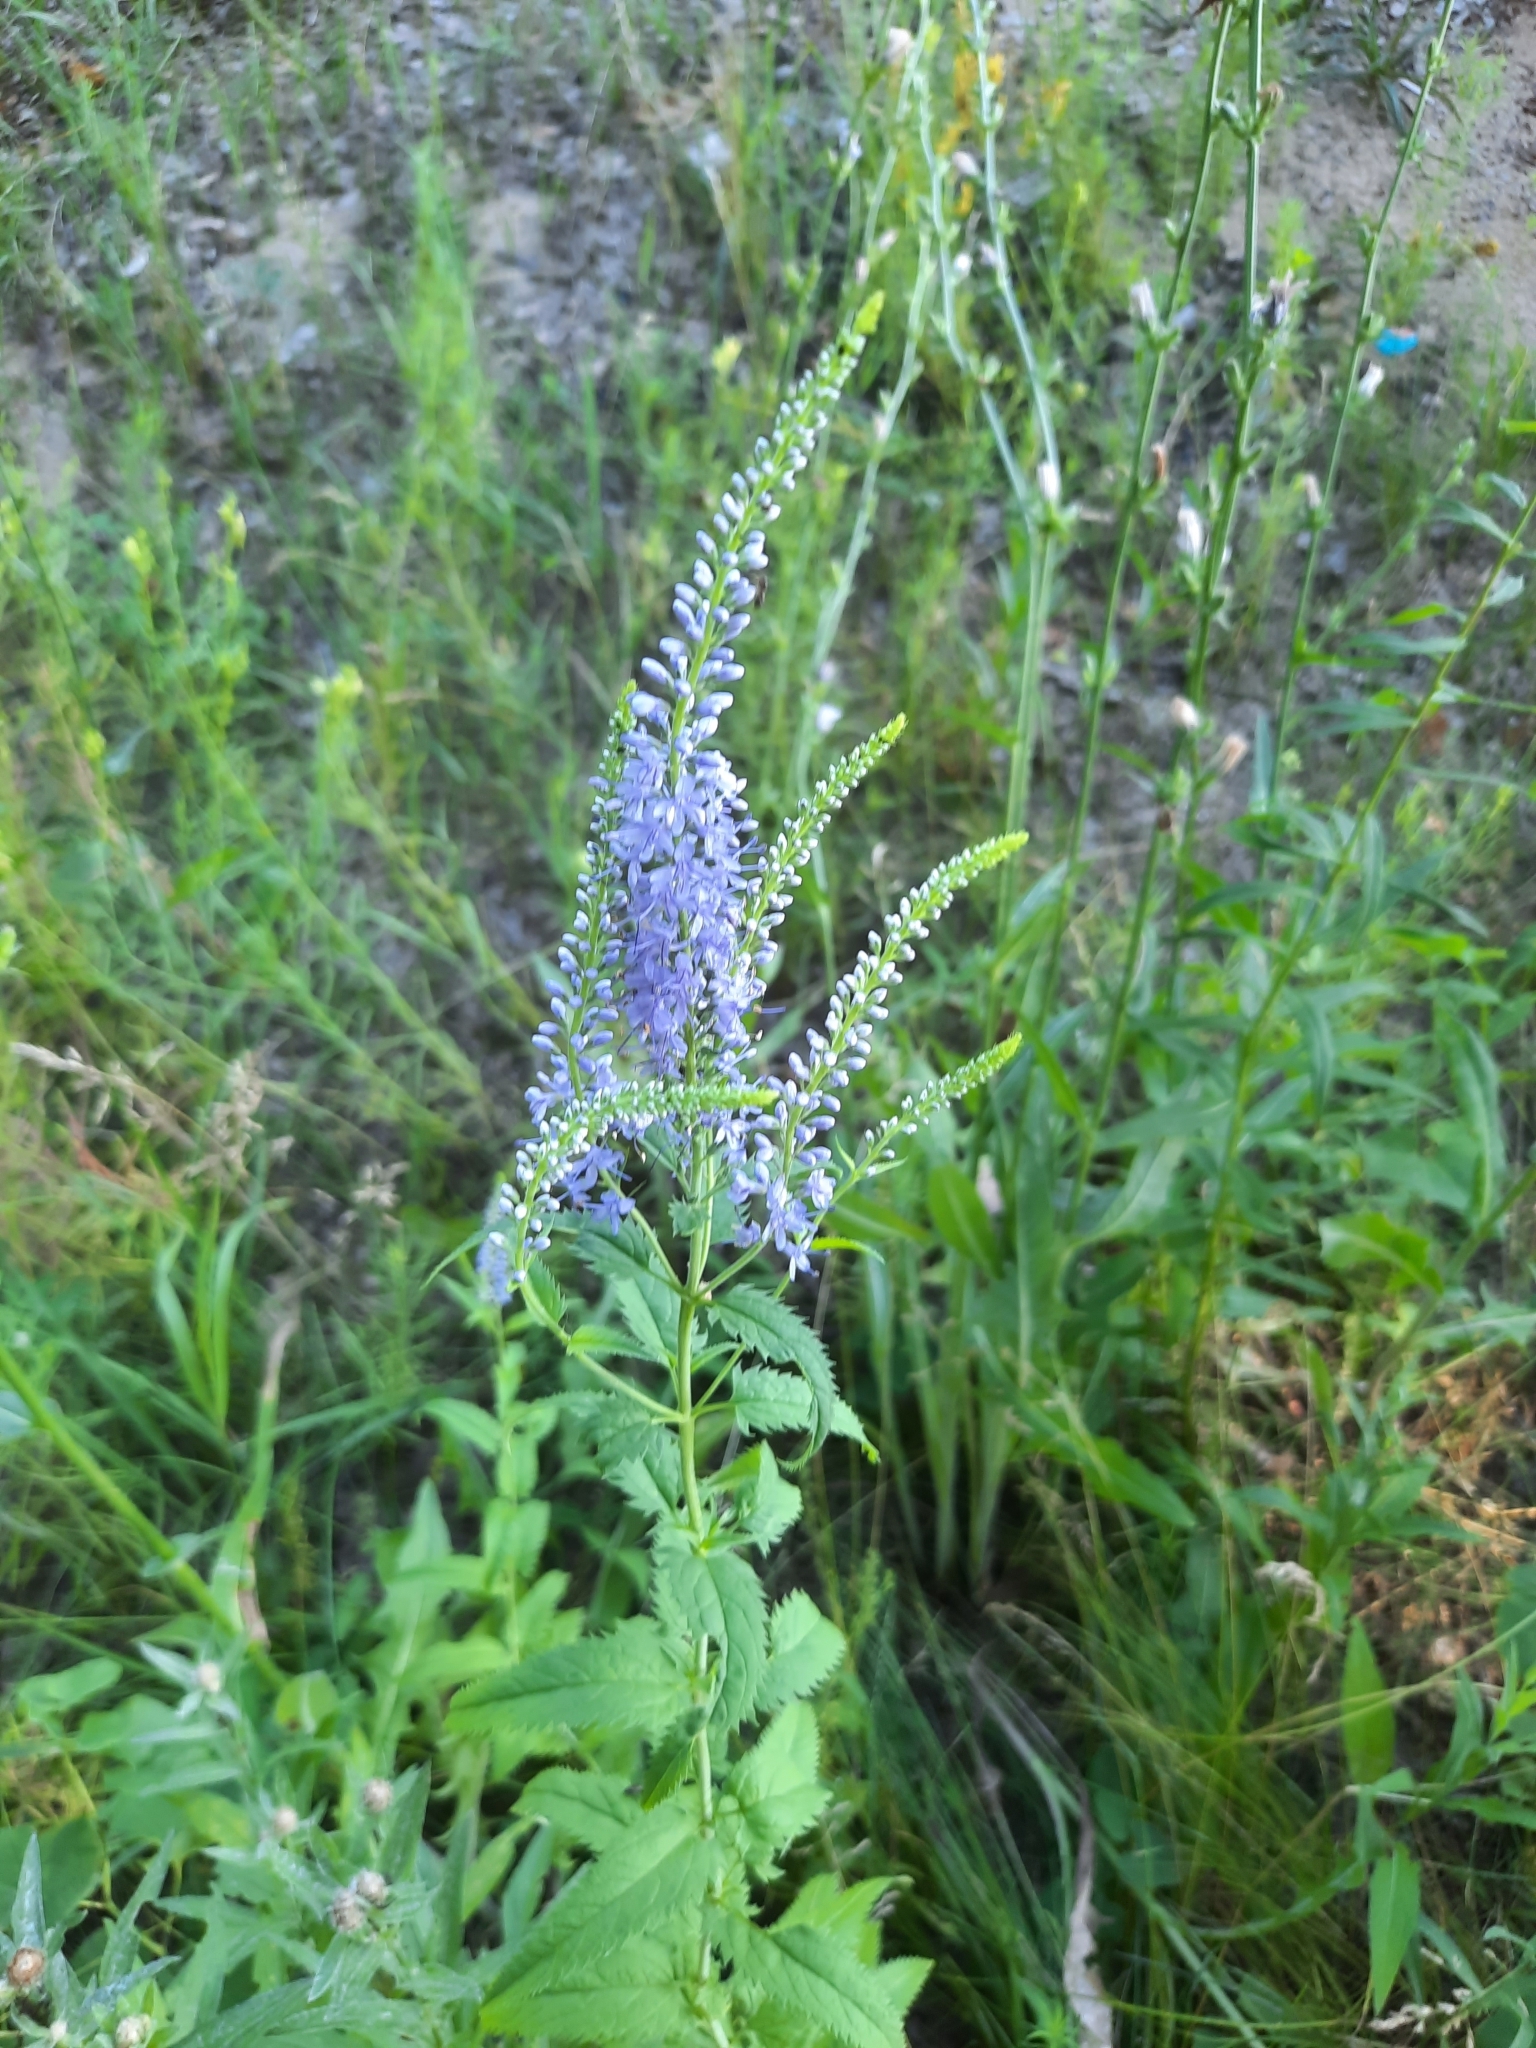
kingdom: Plantae
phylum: Tracheophyta
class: Magnoliopsida
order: Lamiales
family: Plantaginaceae
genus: Veronica
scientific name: Veronica longifolia
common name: Garden speedwell
